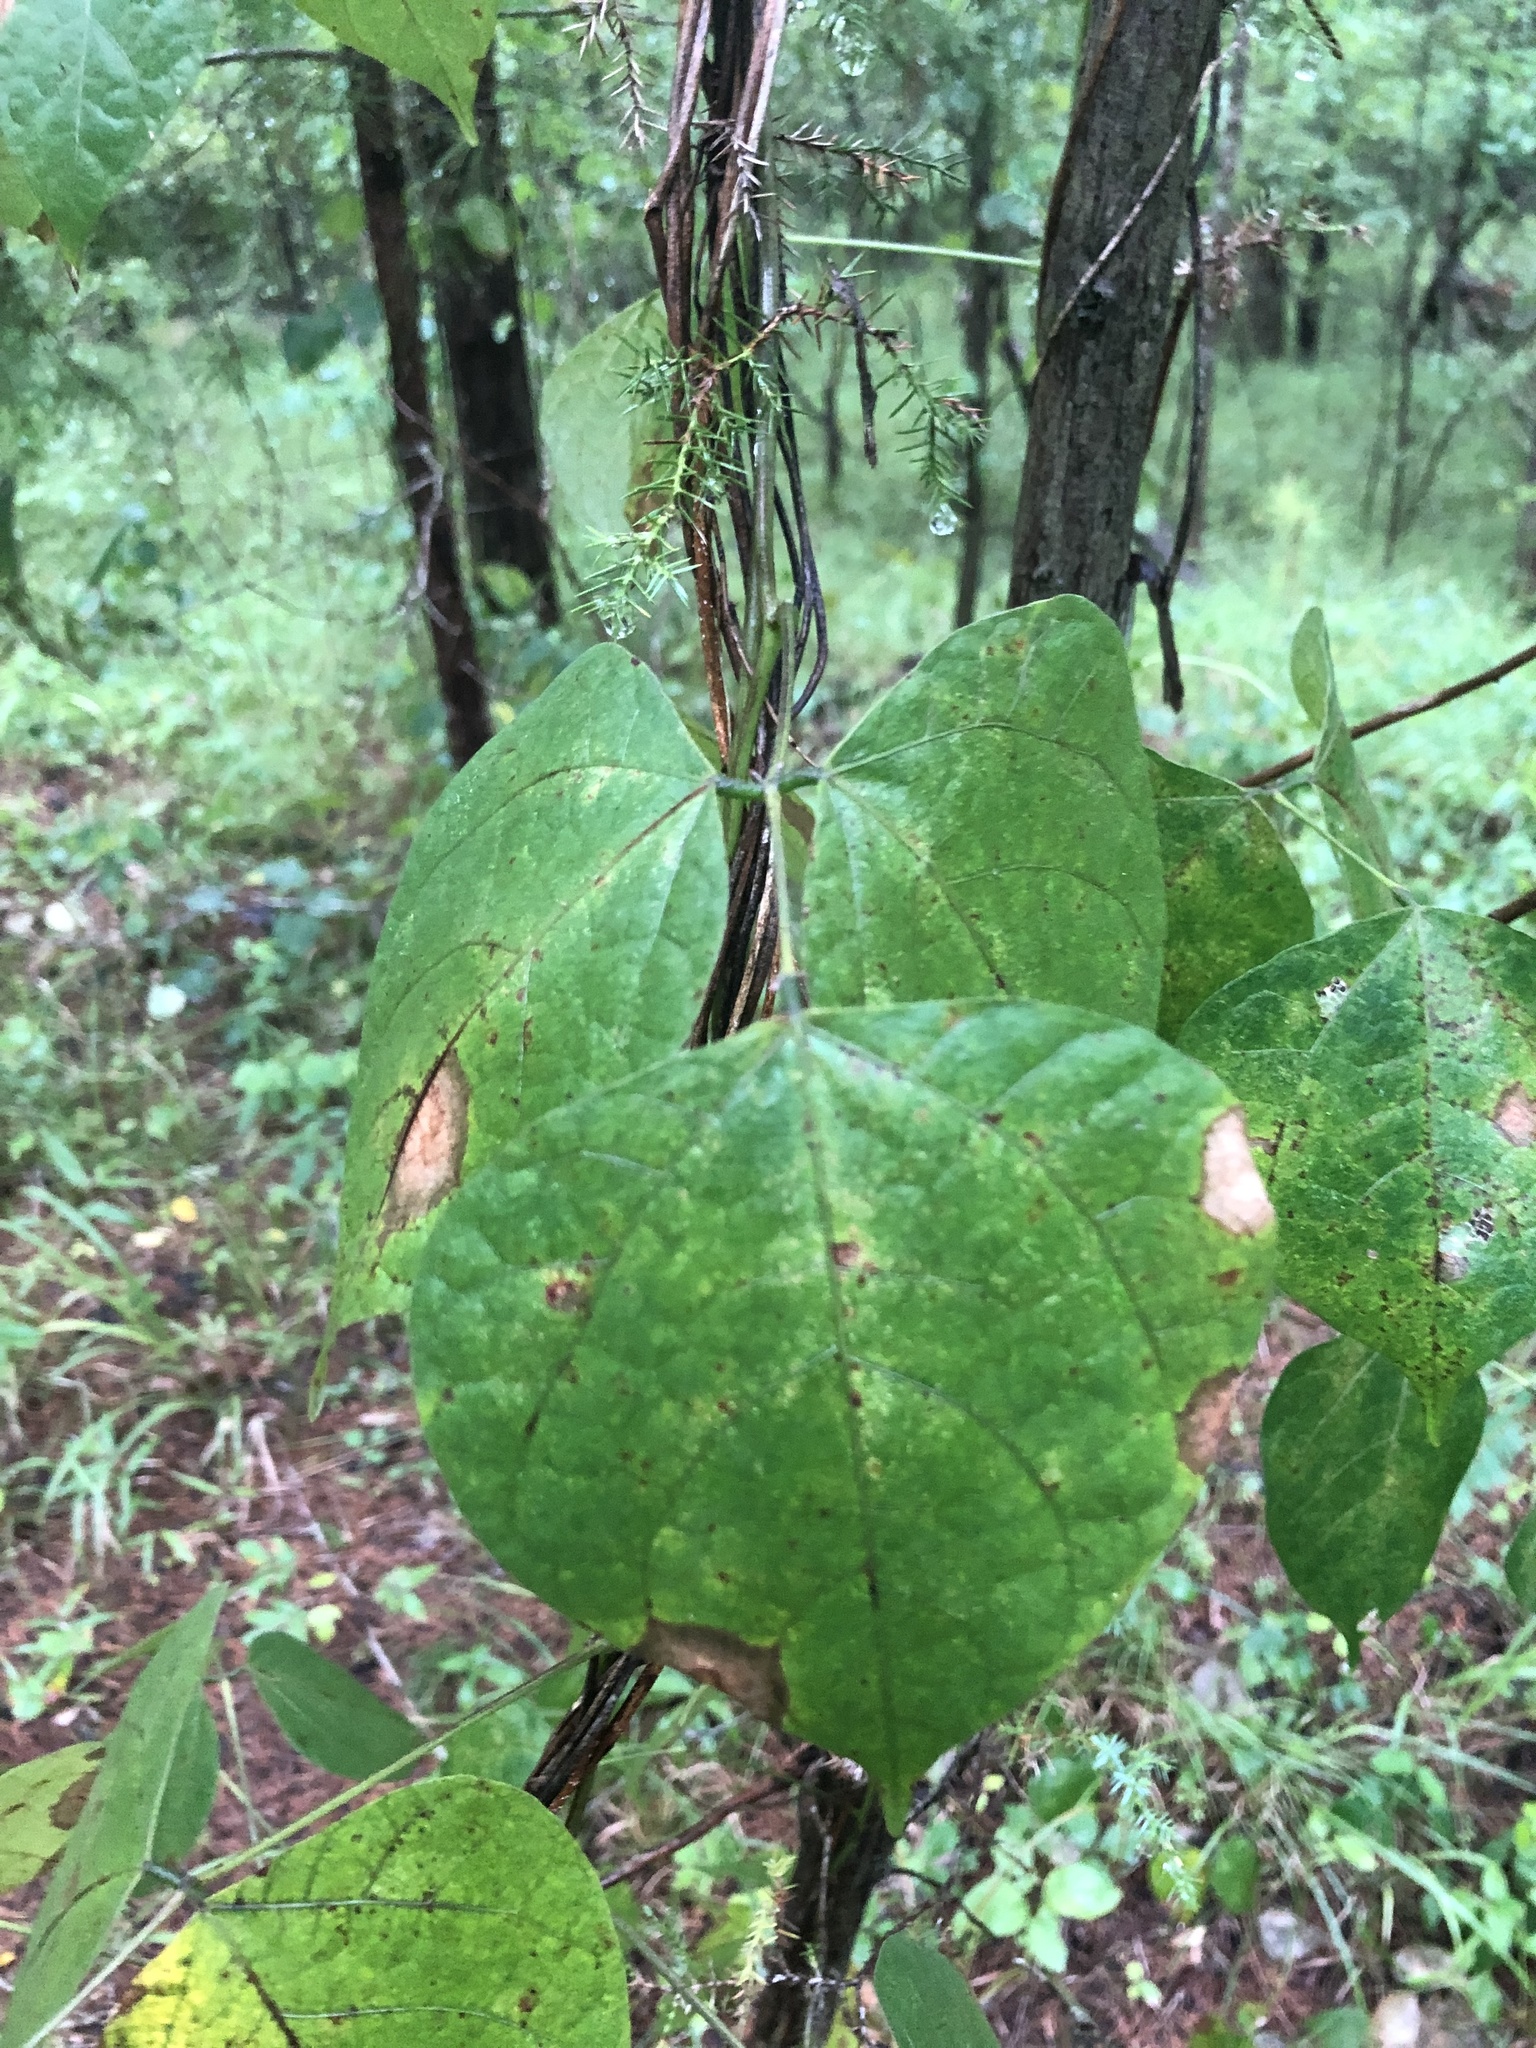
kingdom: Plantae
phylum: Tracheophyta
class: Magnoliopsida
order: Fabales
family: Fabaceae
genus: Phaseolus
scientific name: Phaseolus polystachios
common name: Thicket bean
